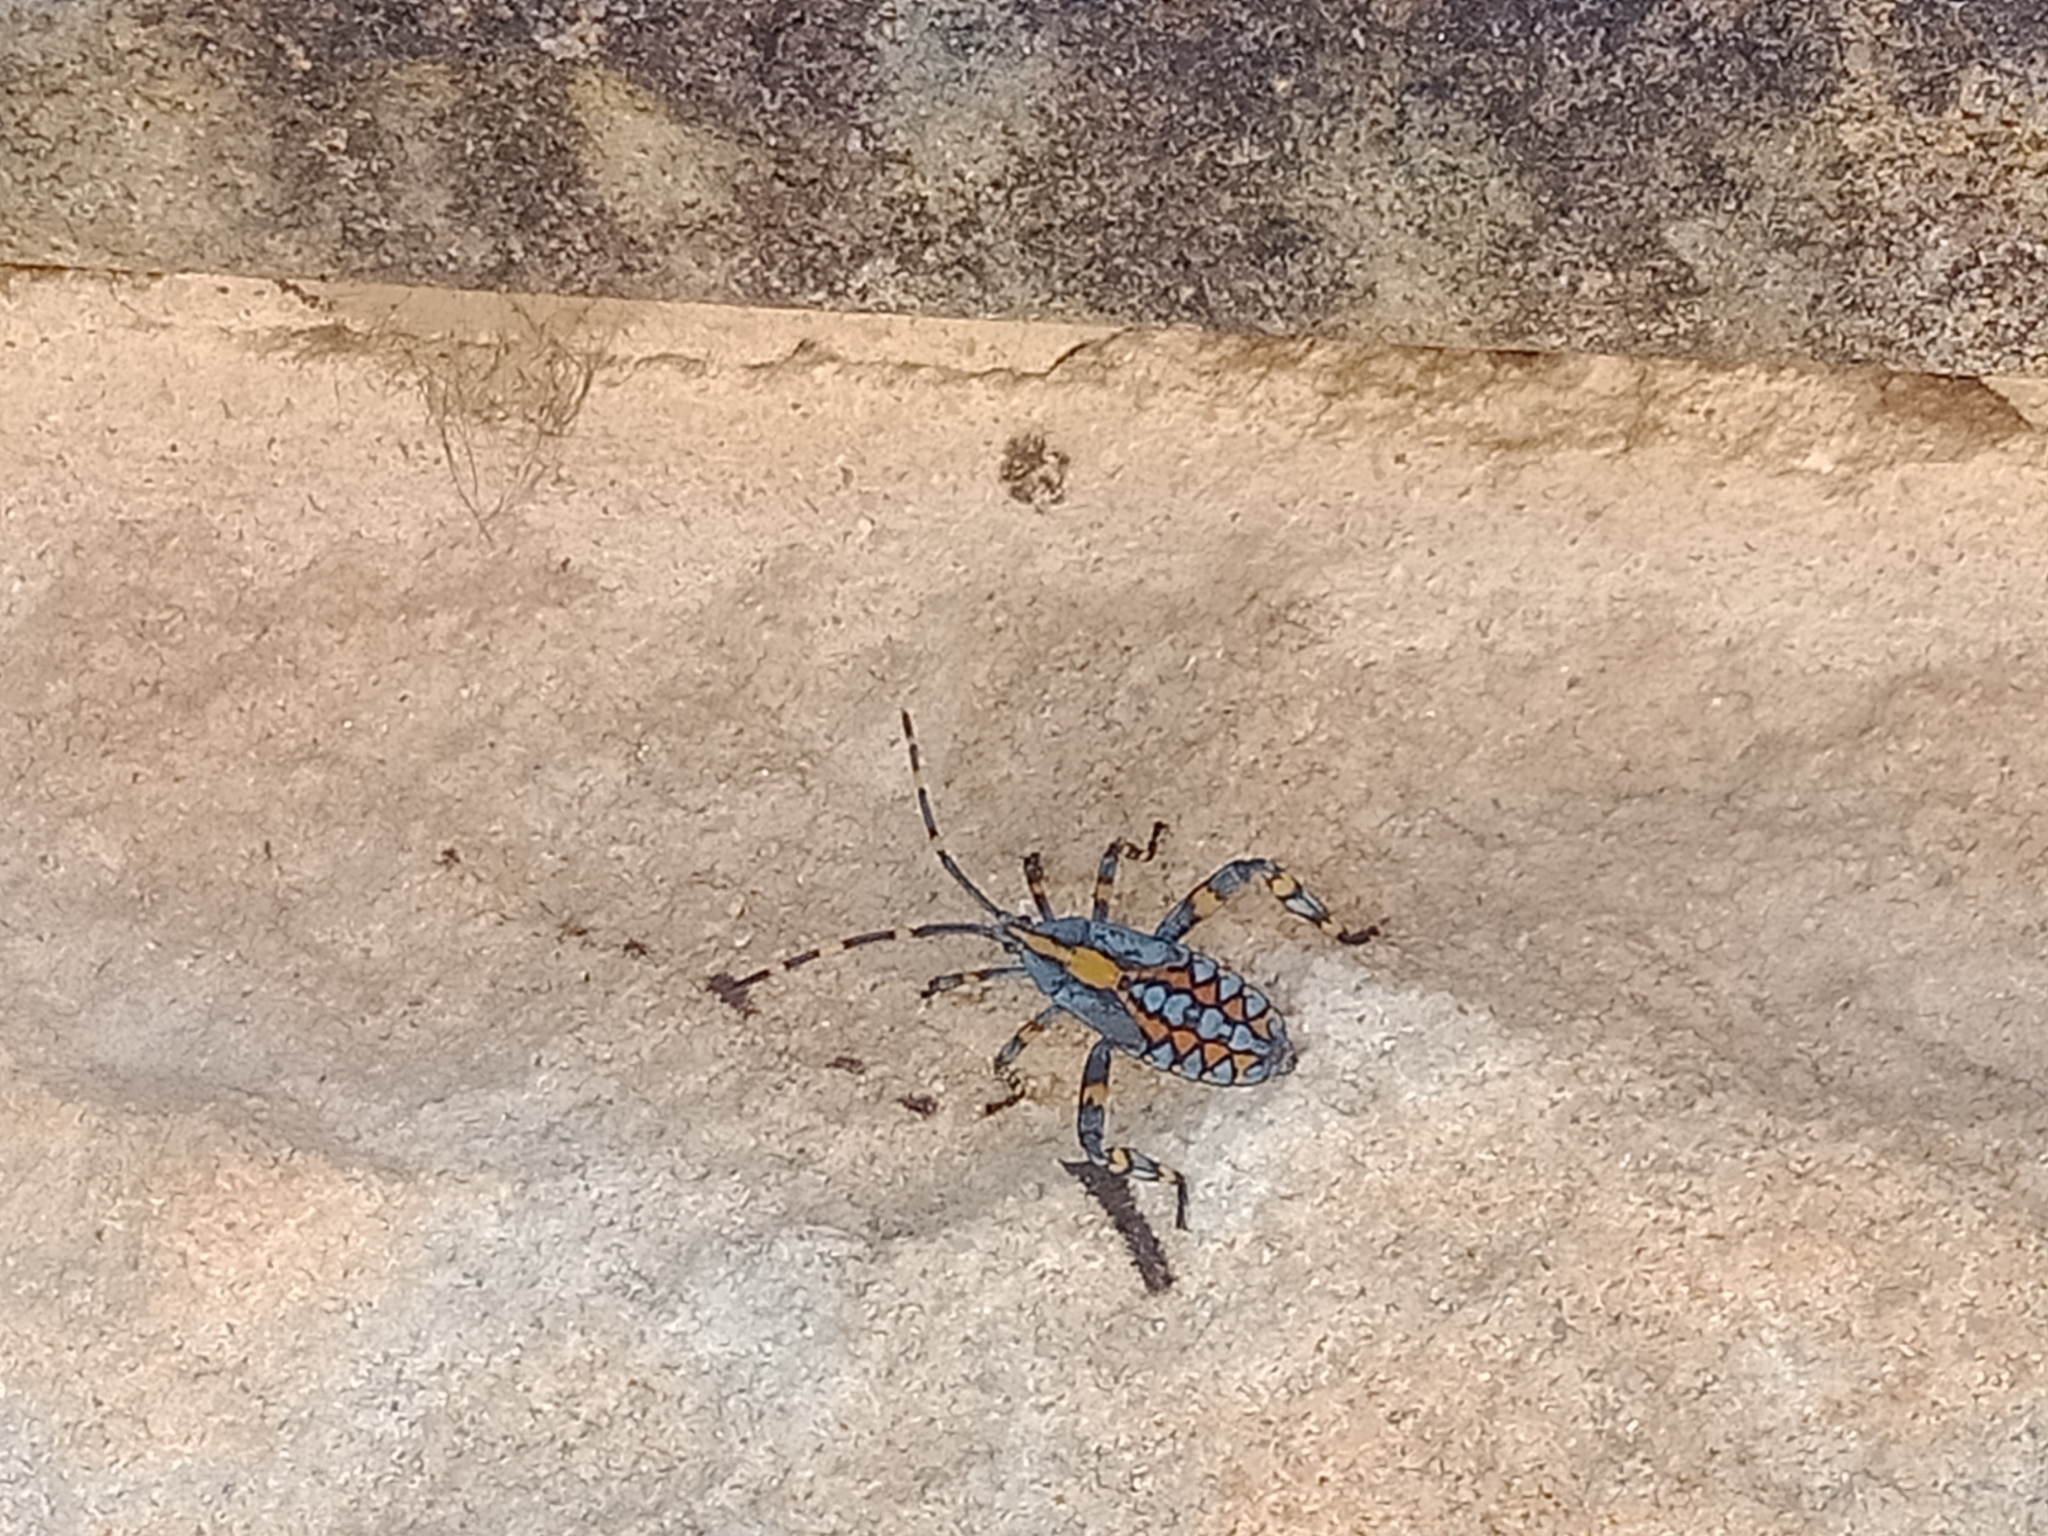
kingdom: Animalia
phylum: Arthropoda
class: Insecta
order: Hemiptera
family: Coreidae
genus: Amorbus
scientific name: Amorbus atomarius
